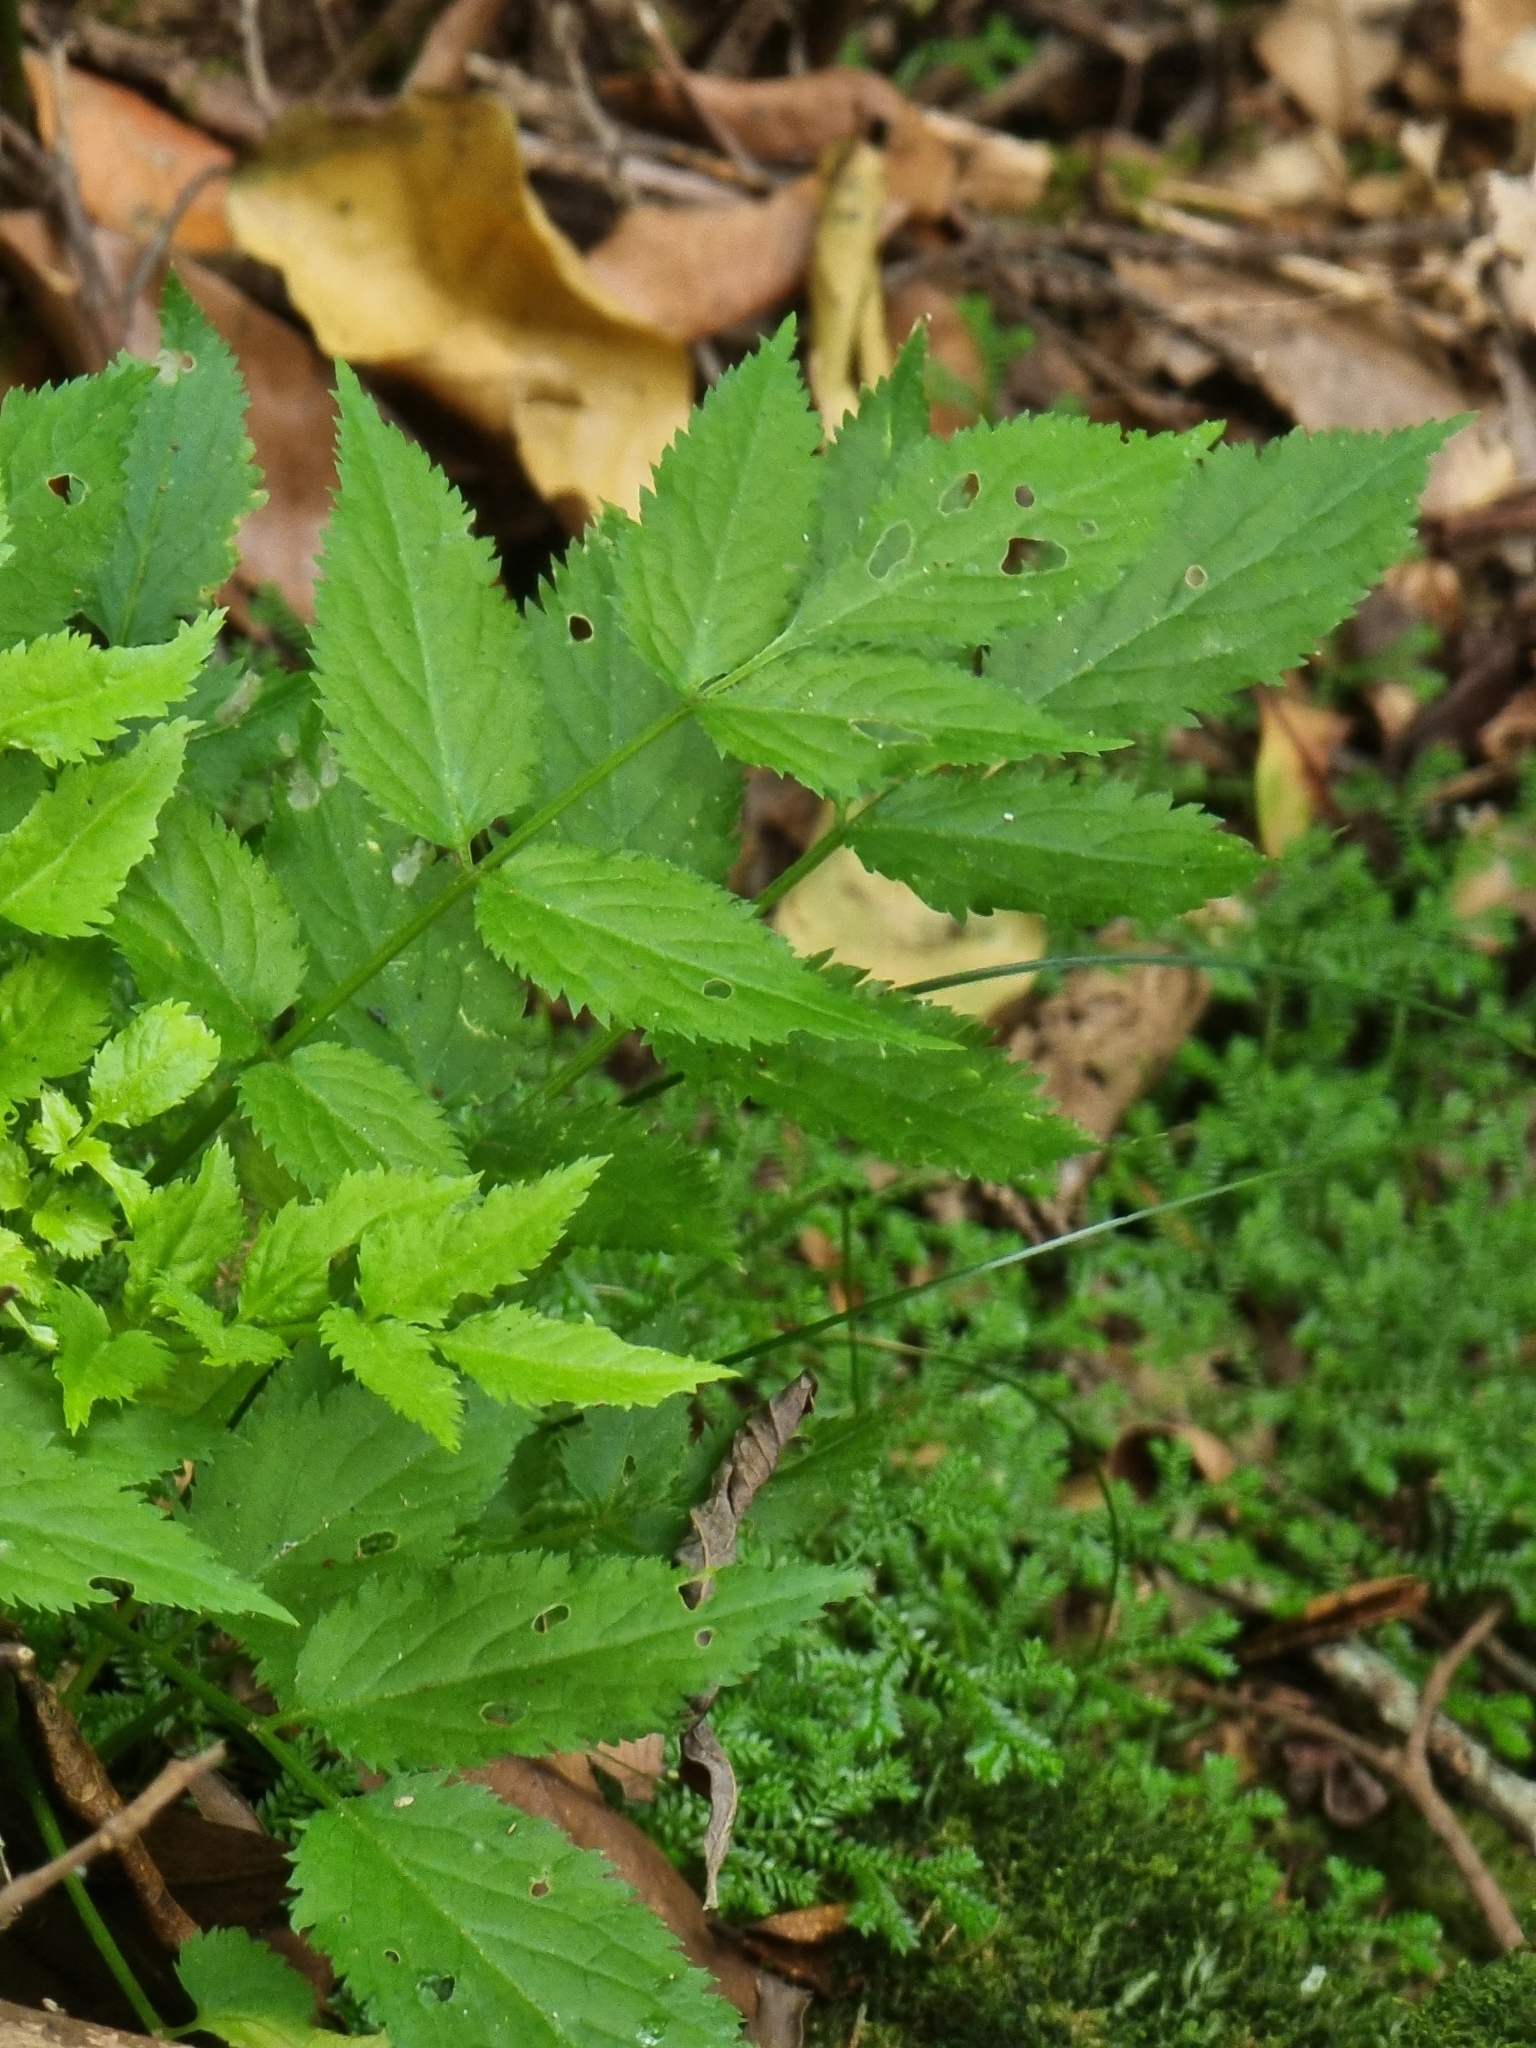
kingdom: Plantae
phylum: Tracheophyta
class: Magnoliopsida
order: Dipsacales
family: Viburnaceae
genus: Sambucus
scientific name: Sambucus lanceolata
